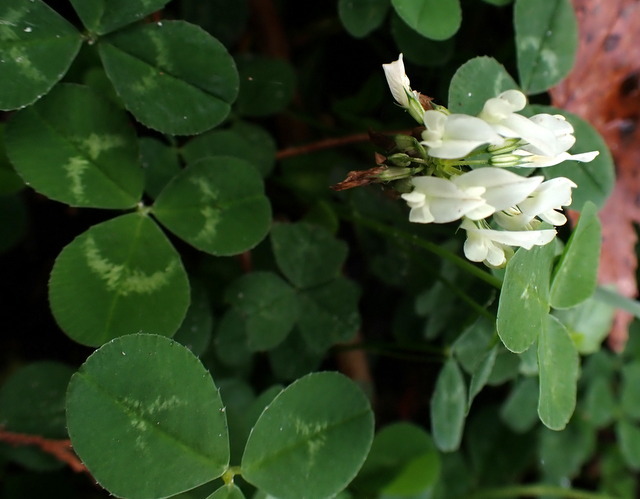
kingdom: Plantae
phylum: Tracheophyta
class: Magnoliopsida
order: Fabales
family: Fabaceae
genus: Trifolium
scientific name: Trifolium repens
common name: White clover
